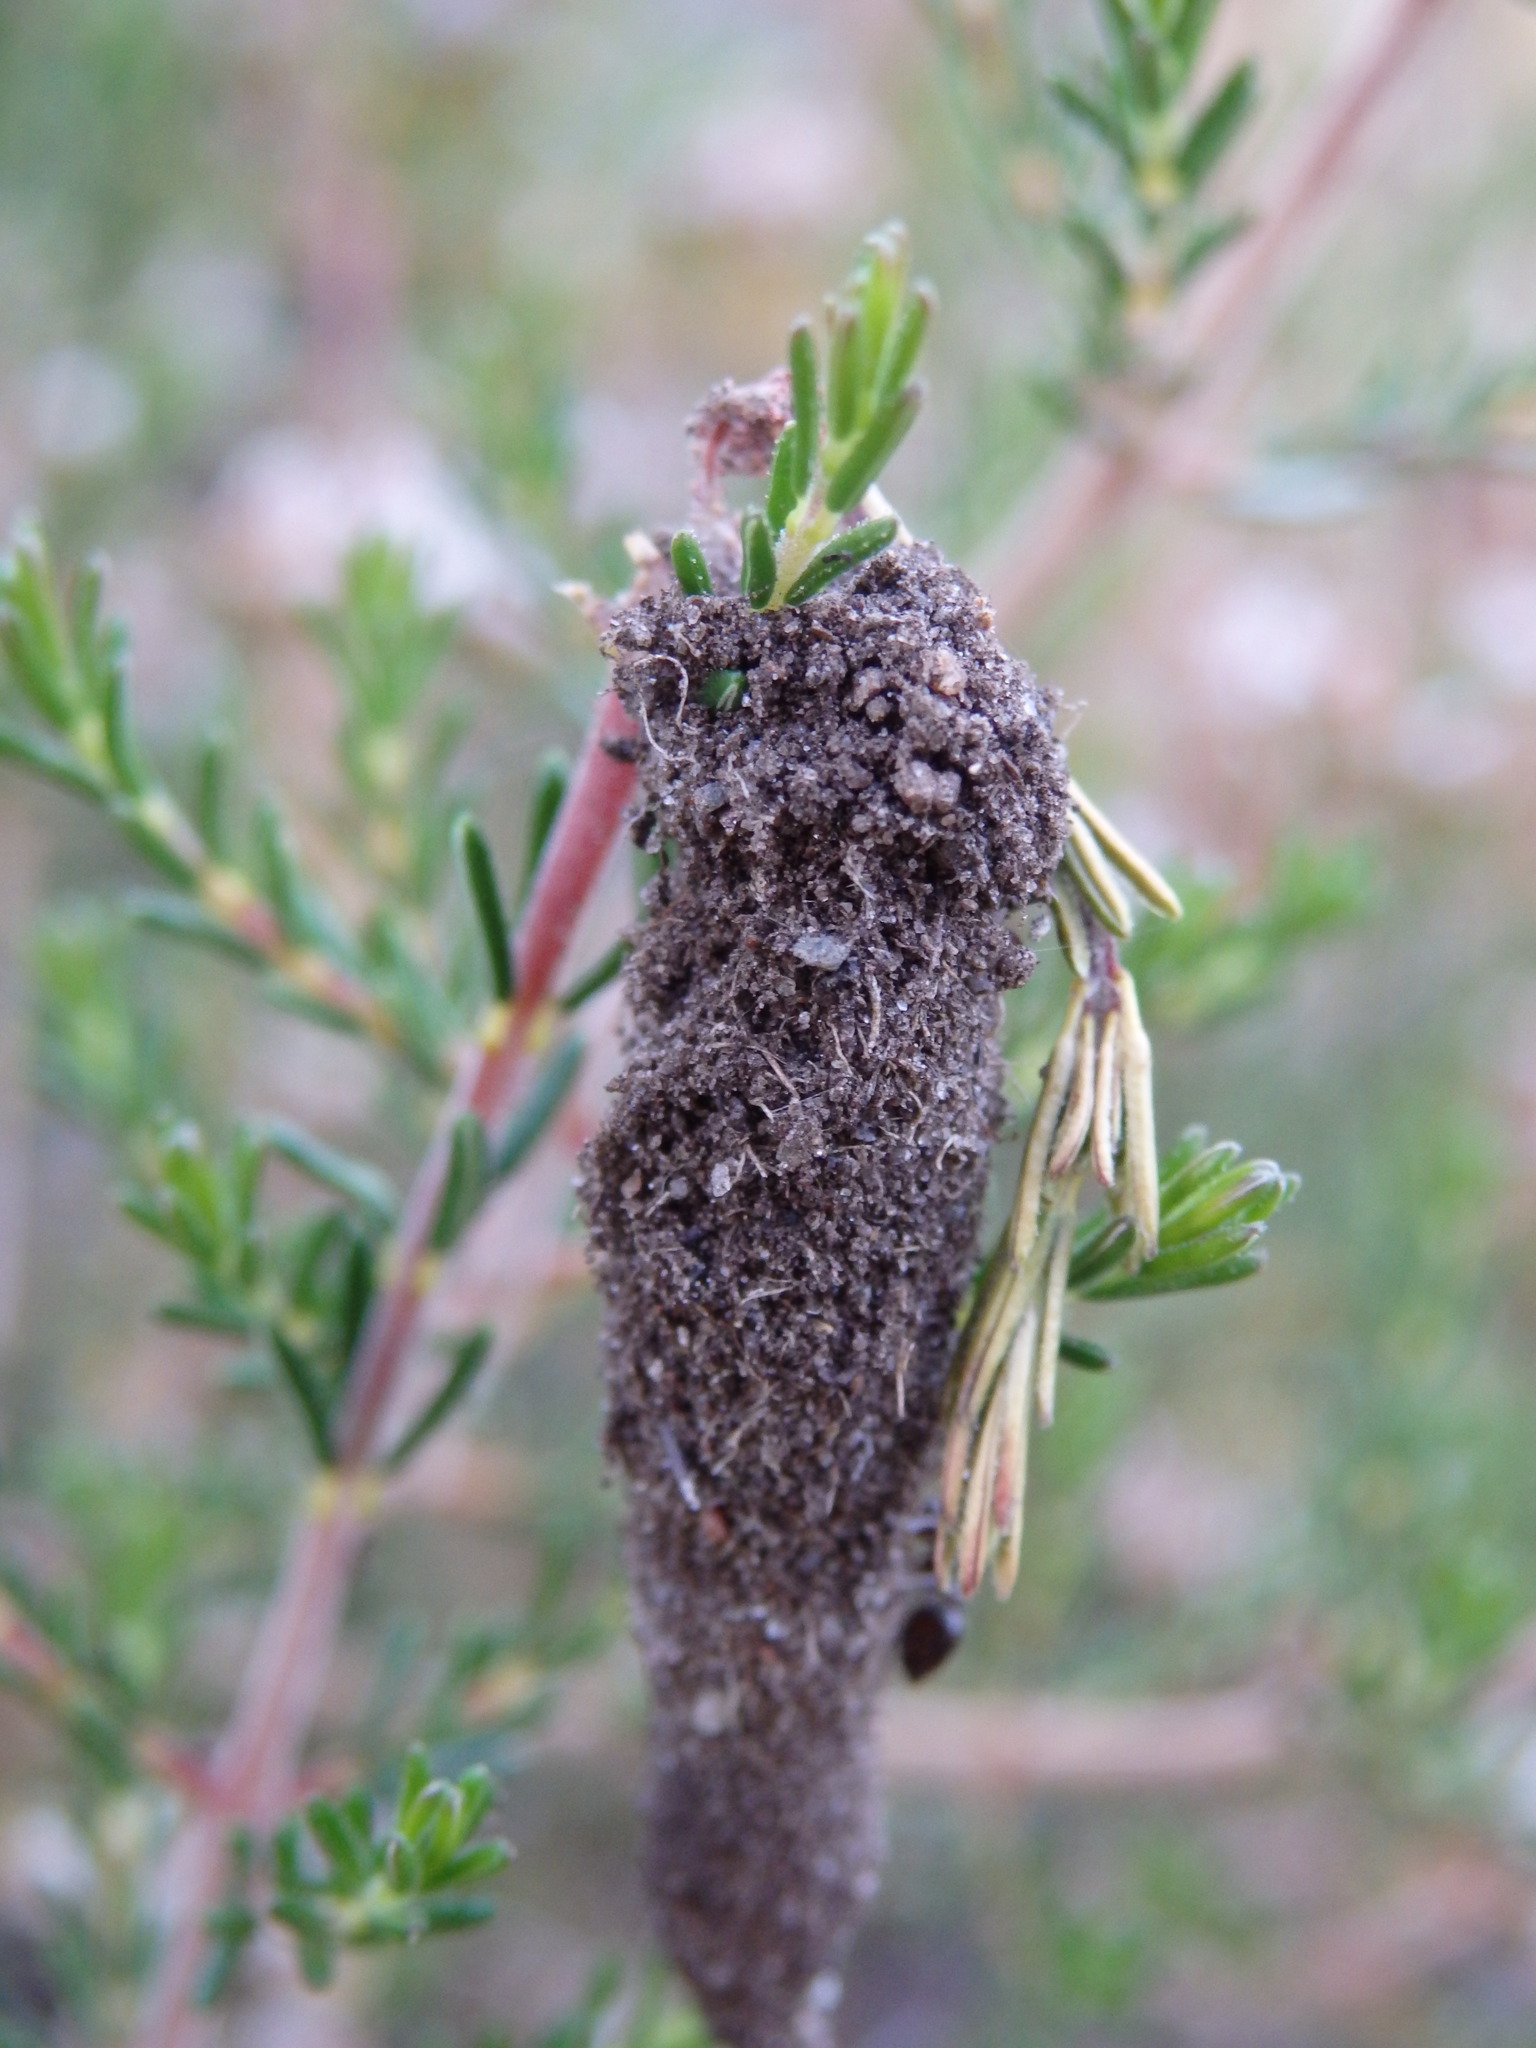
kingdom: Animalia
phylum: Arthropoda
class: Insecta
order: Hymenoptera
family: Formicidae
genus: Crematogaster
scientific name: Crematogaster auberti
